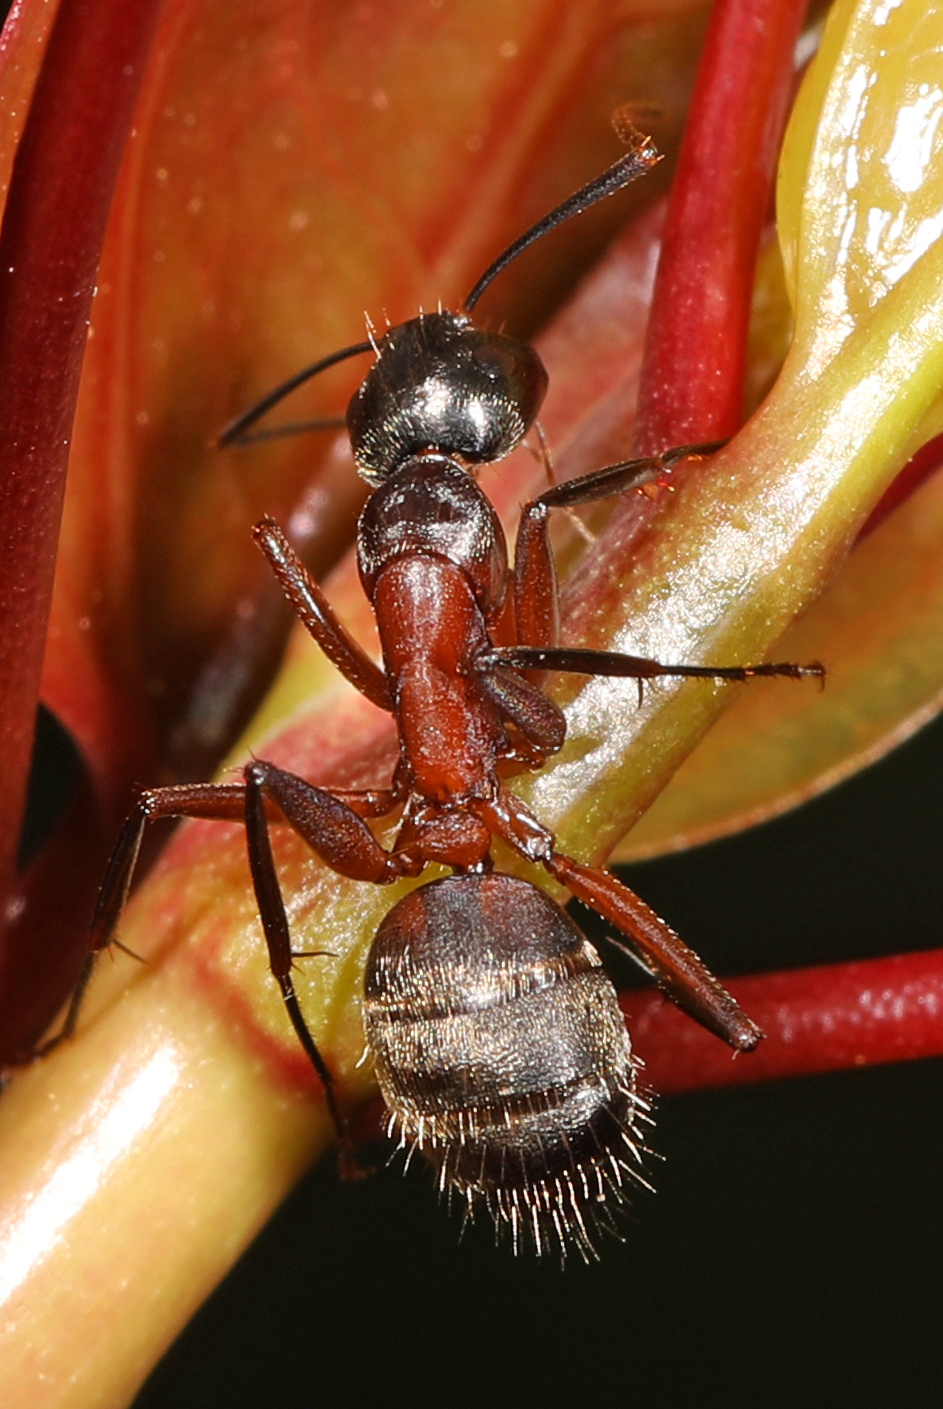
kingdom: Animalia
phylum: Arthropoda
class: Insecta
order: Hymenoptera
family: Formicidae
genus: Camponotus
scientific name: Camponotus chromaiodes
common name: Red carpenter ant
